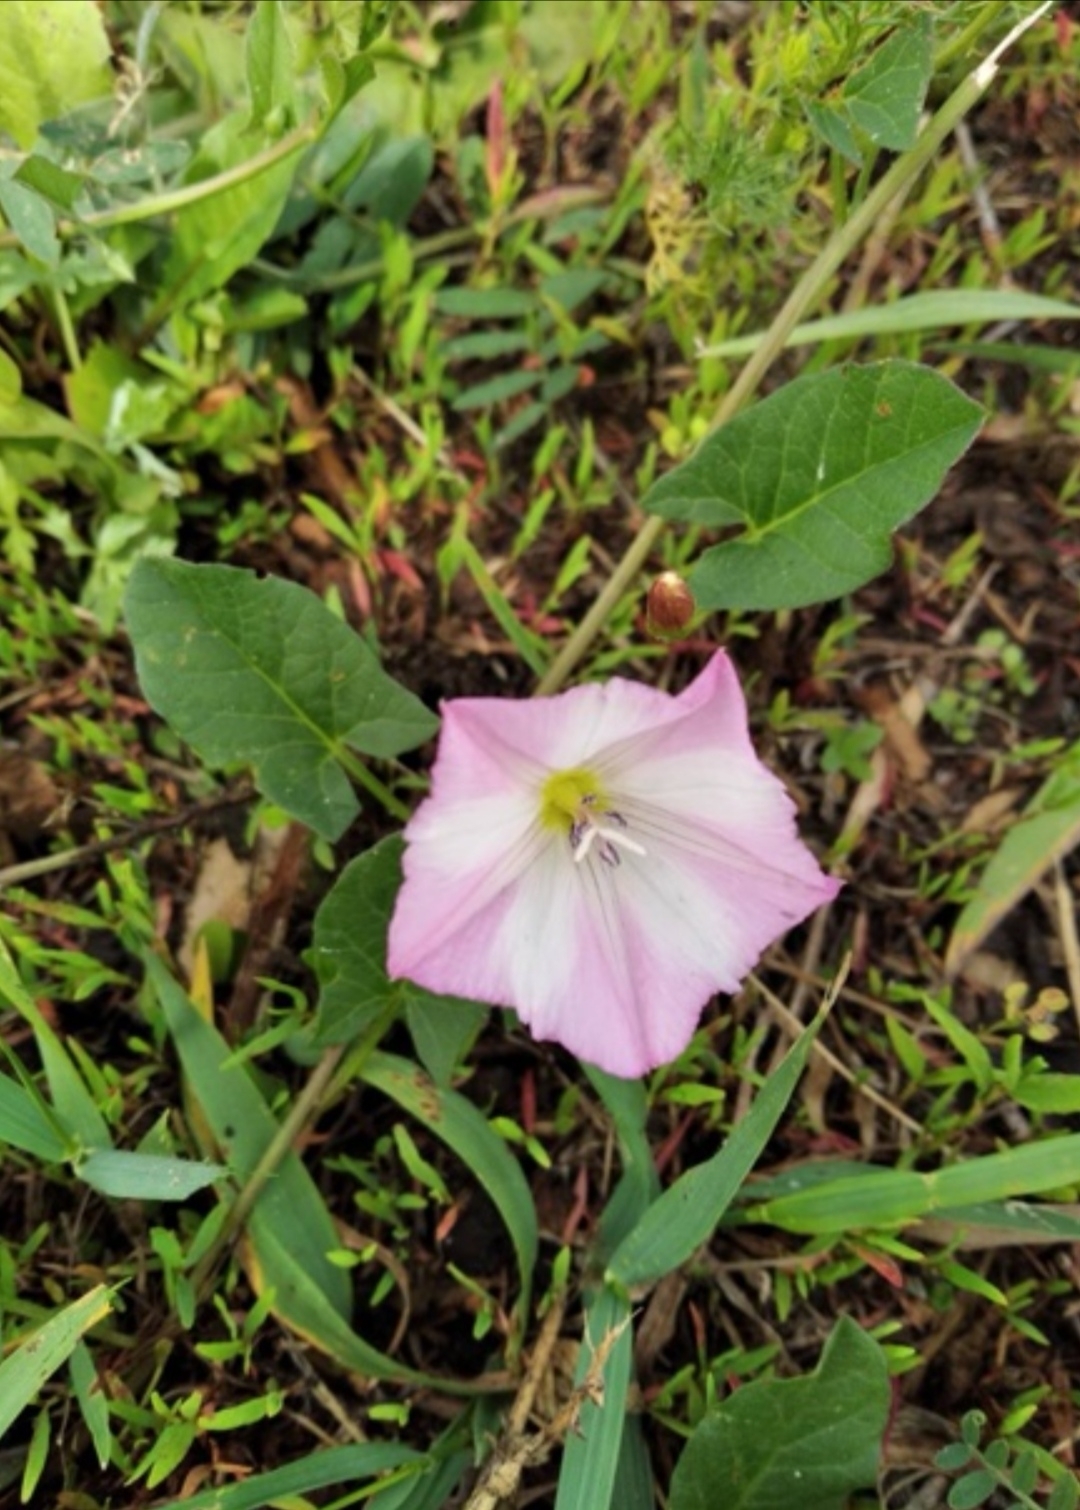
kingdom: Plantae
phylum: Tracheophyta
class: Magnoliopsida
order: Solanales
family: Convolvulaceae
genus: Convolvulus
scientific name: Convolvulus arvensis
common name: Field bindweed
